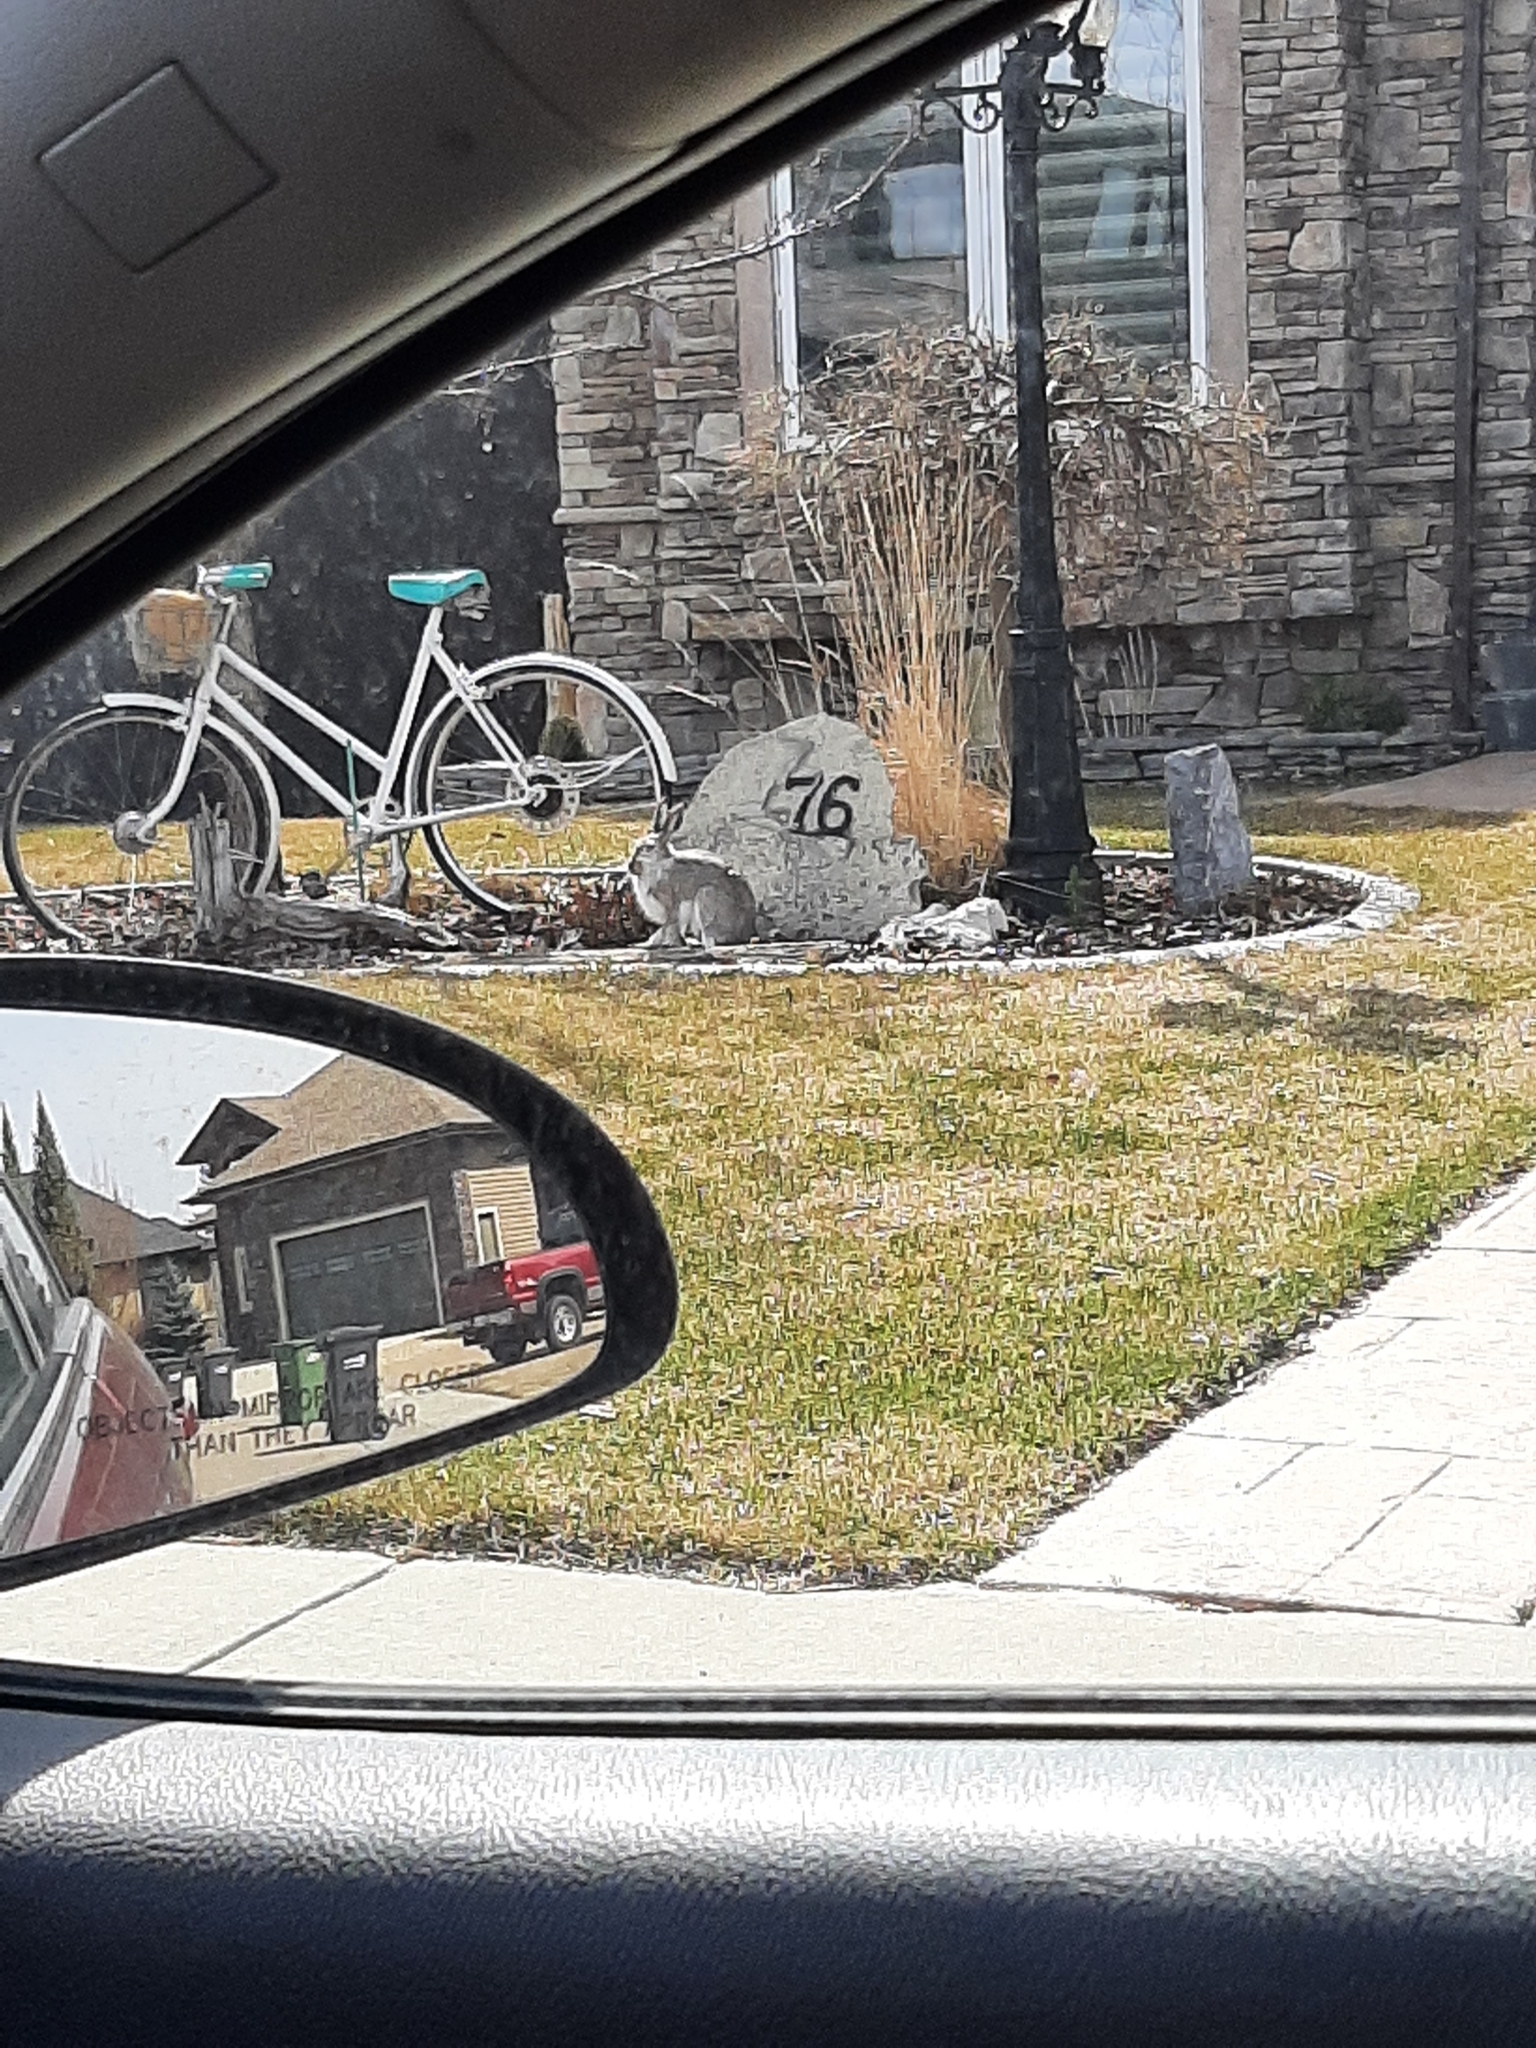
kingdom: Animalia
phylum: Chordata
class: Mammalia
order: Lagomorpha
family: Leporidae
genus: Lepus
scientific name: Lepus townsendii
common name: White-tailed jackrabbit
